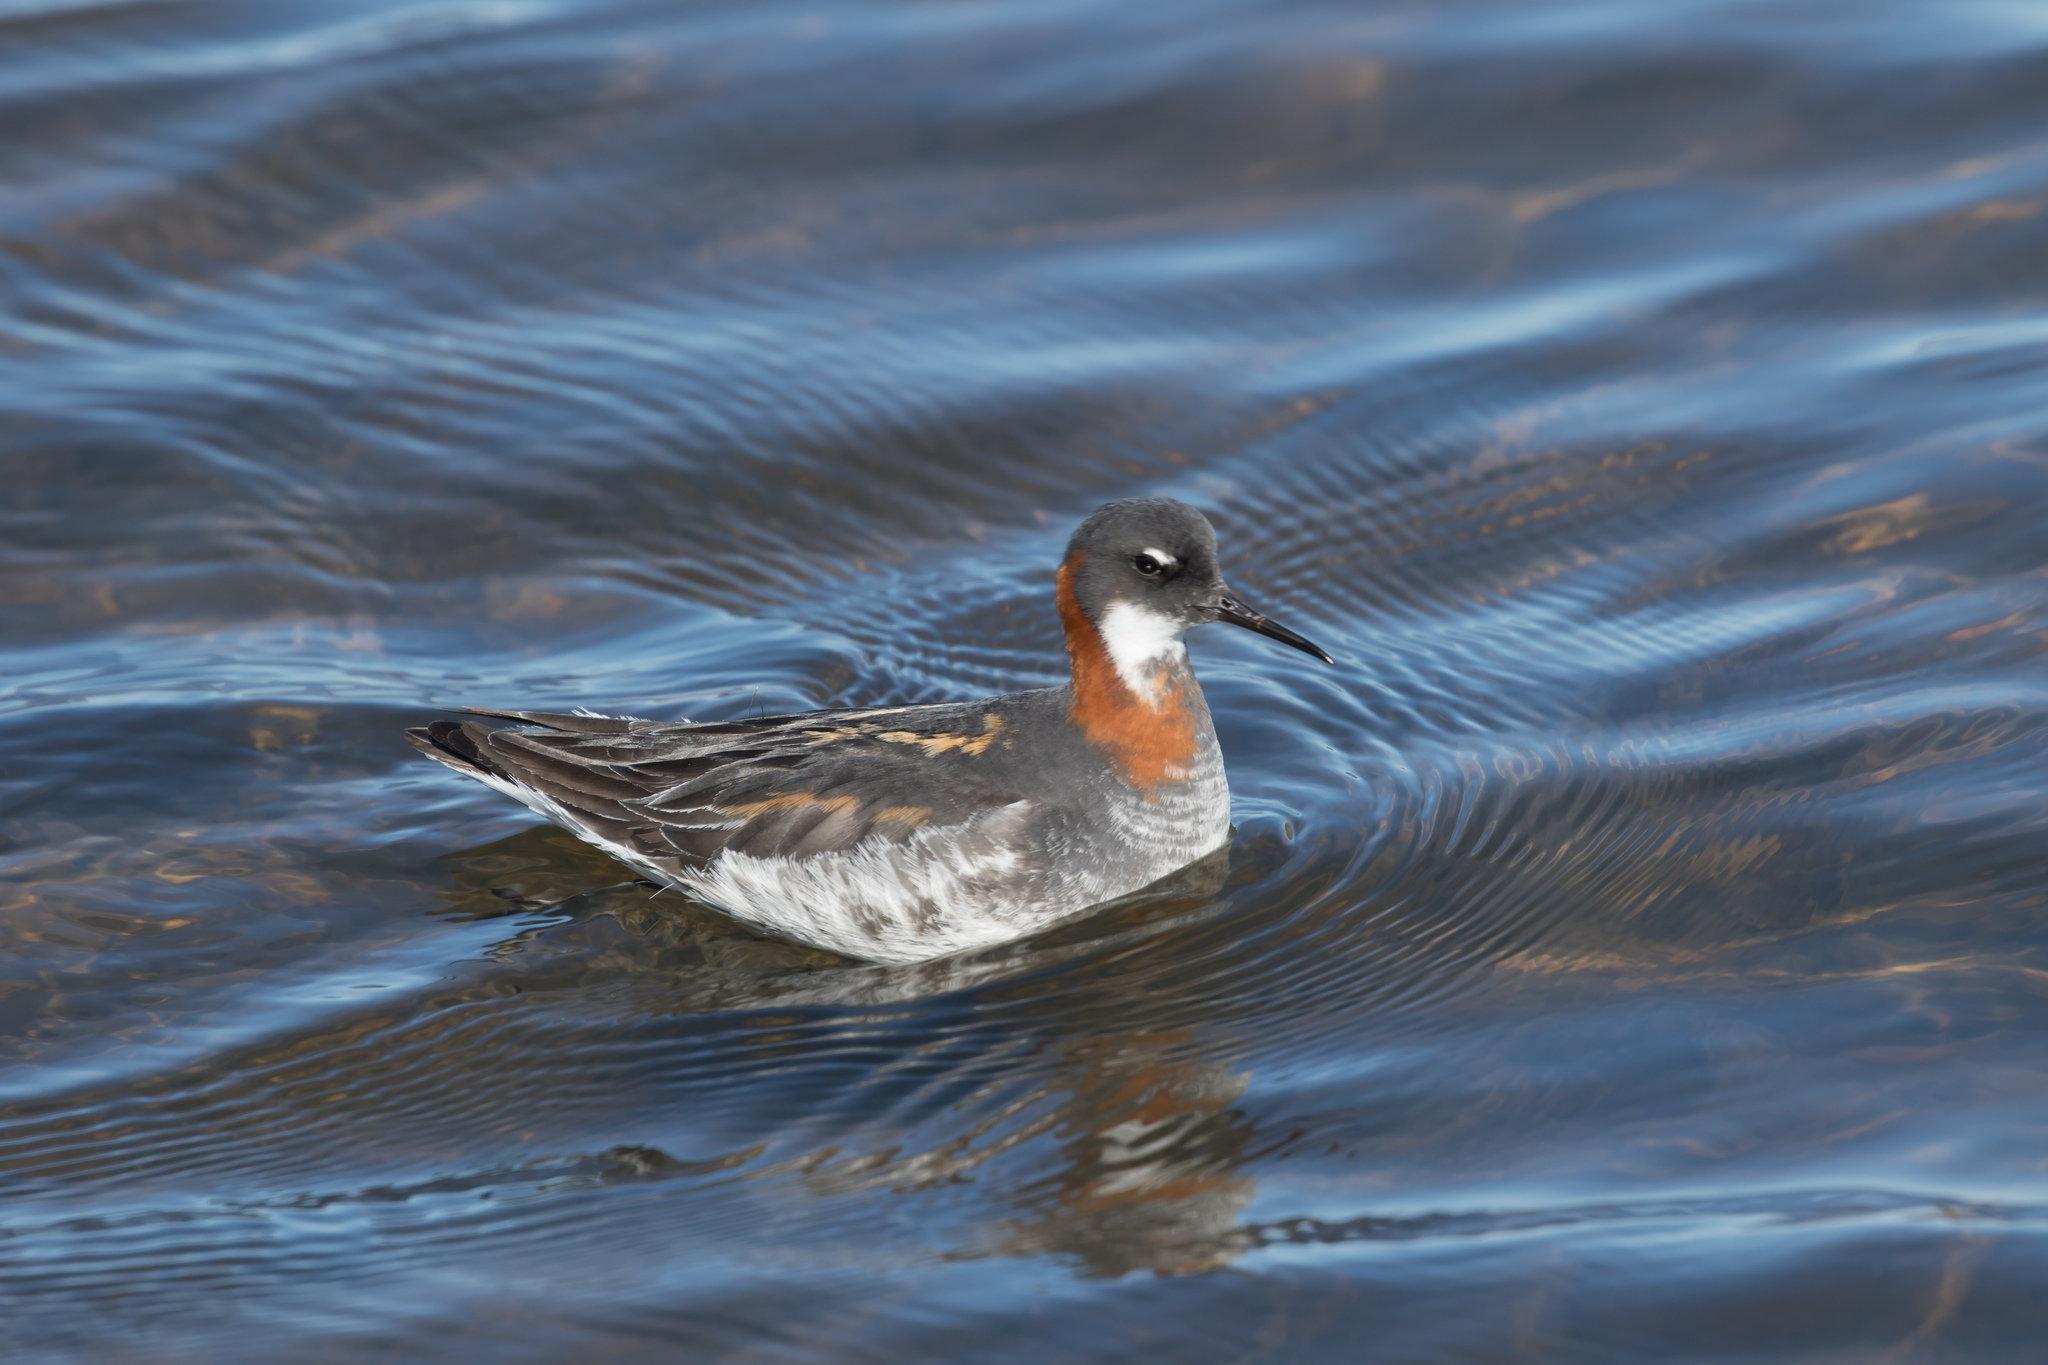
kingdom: Animalia
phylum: Chordata
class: Aves
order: Charadriiformes
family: Scolopacidae
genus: Phalaropus
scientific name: Phalaropus lobatus
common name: Red-necked phalarope
